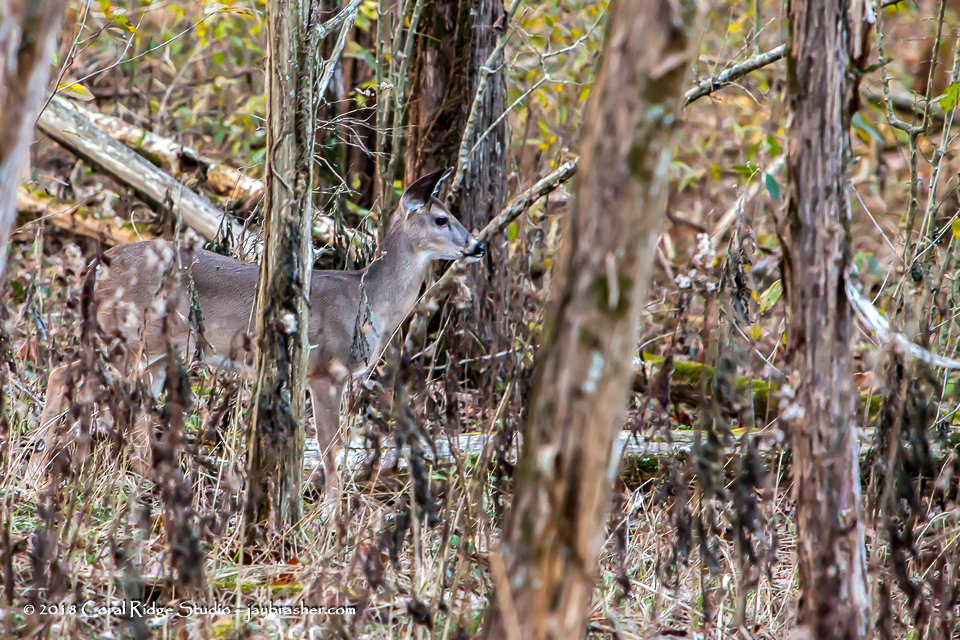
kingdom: Animalia
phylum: Chordata
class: Mammalia
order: Artiodactyla
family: Cervidae
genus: Odocoileus
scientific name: Odocoileus virginianus
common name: White-tailed deer
